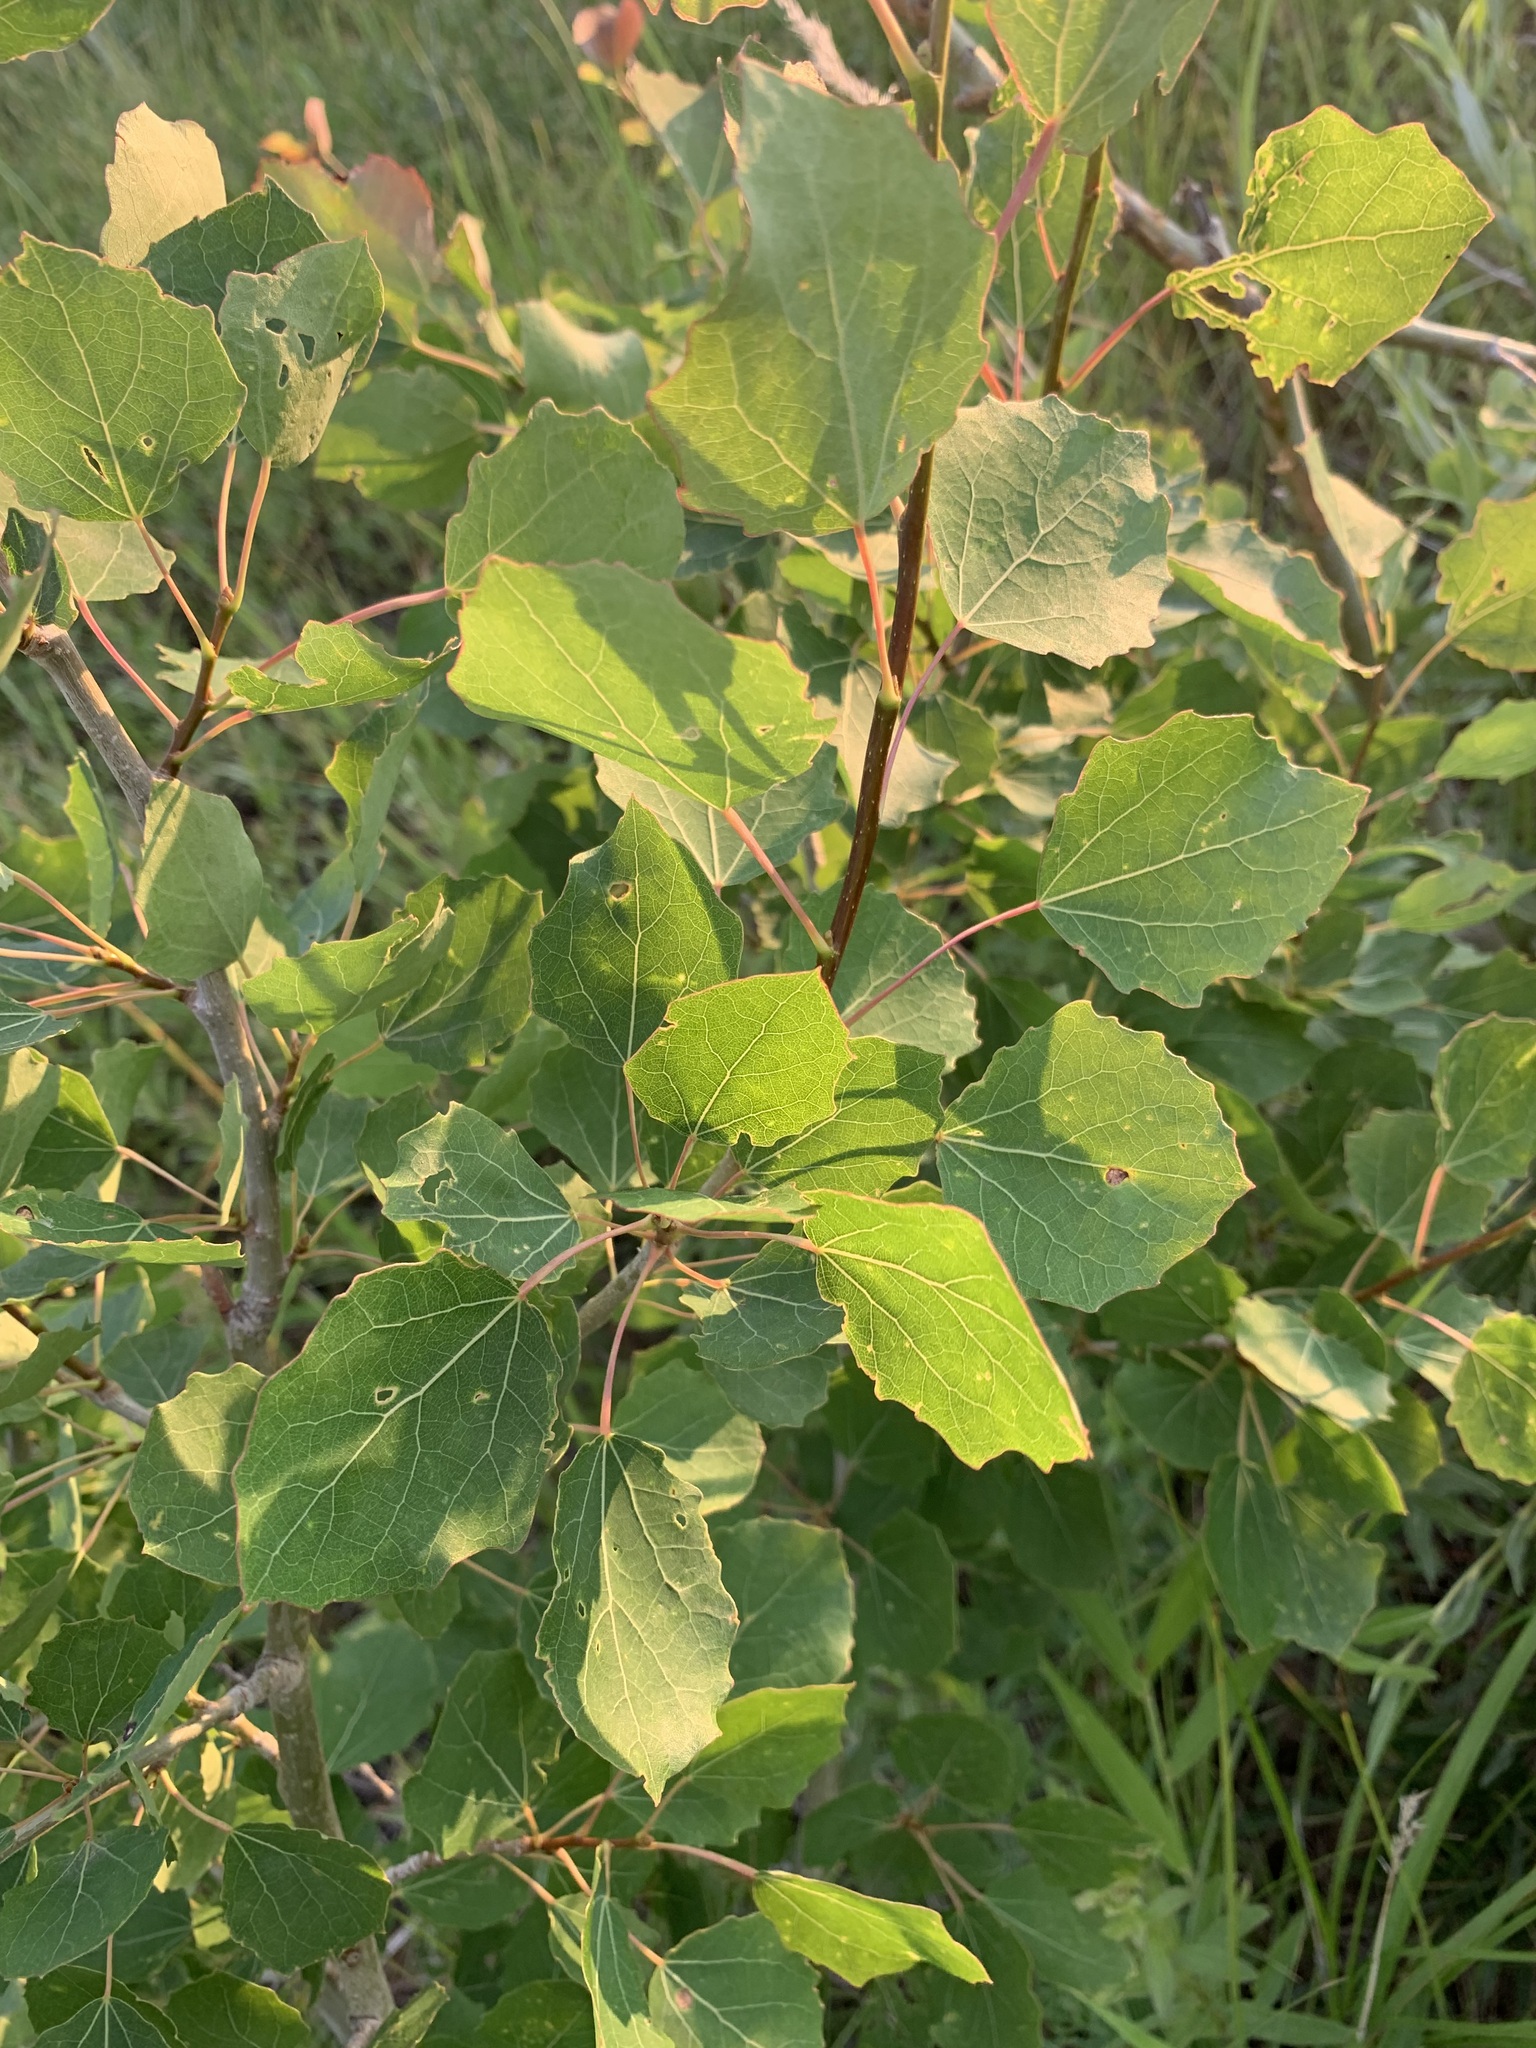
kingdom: Plantae
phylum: Tracheophyta
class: Magnoliopsida
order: Malpighiales
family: Salicaceae
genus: Populus
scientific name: Populus tremula
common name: European aspen
